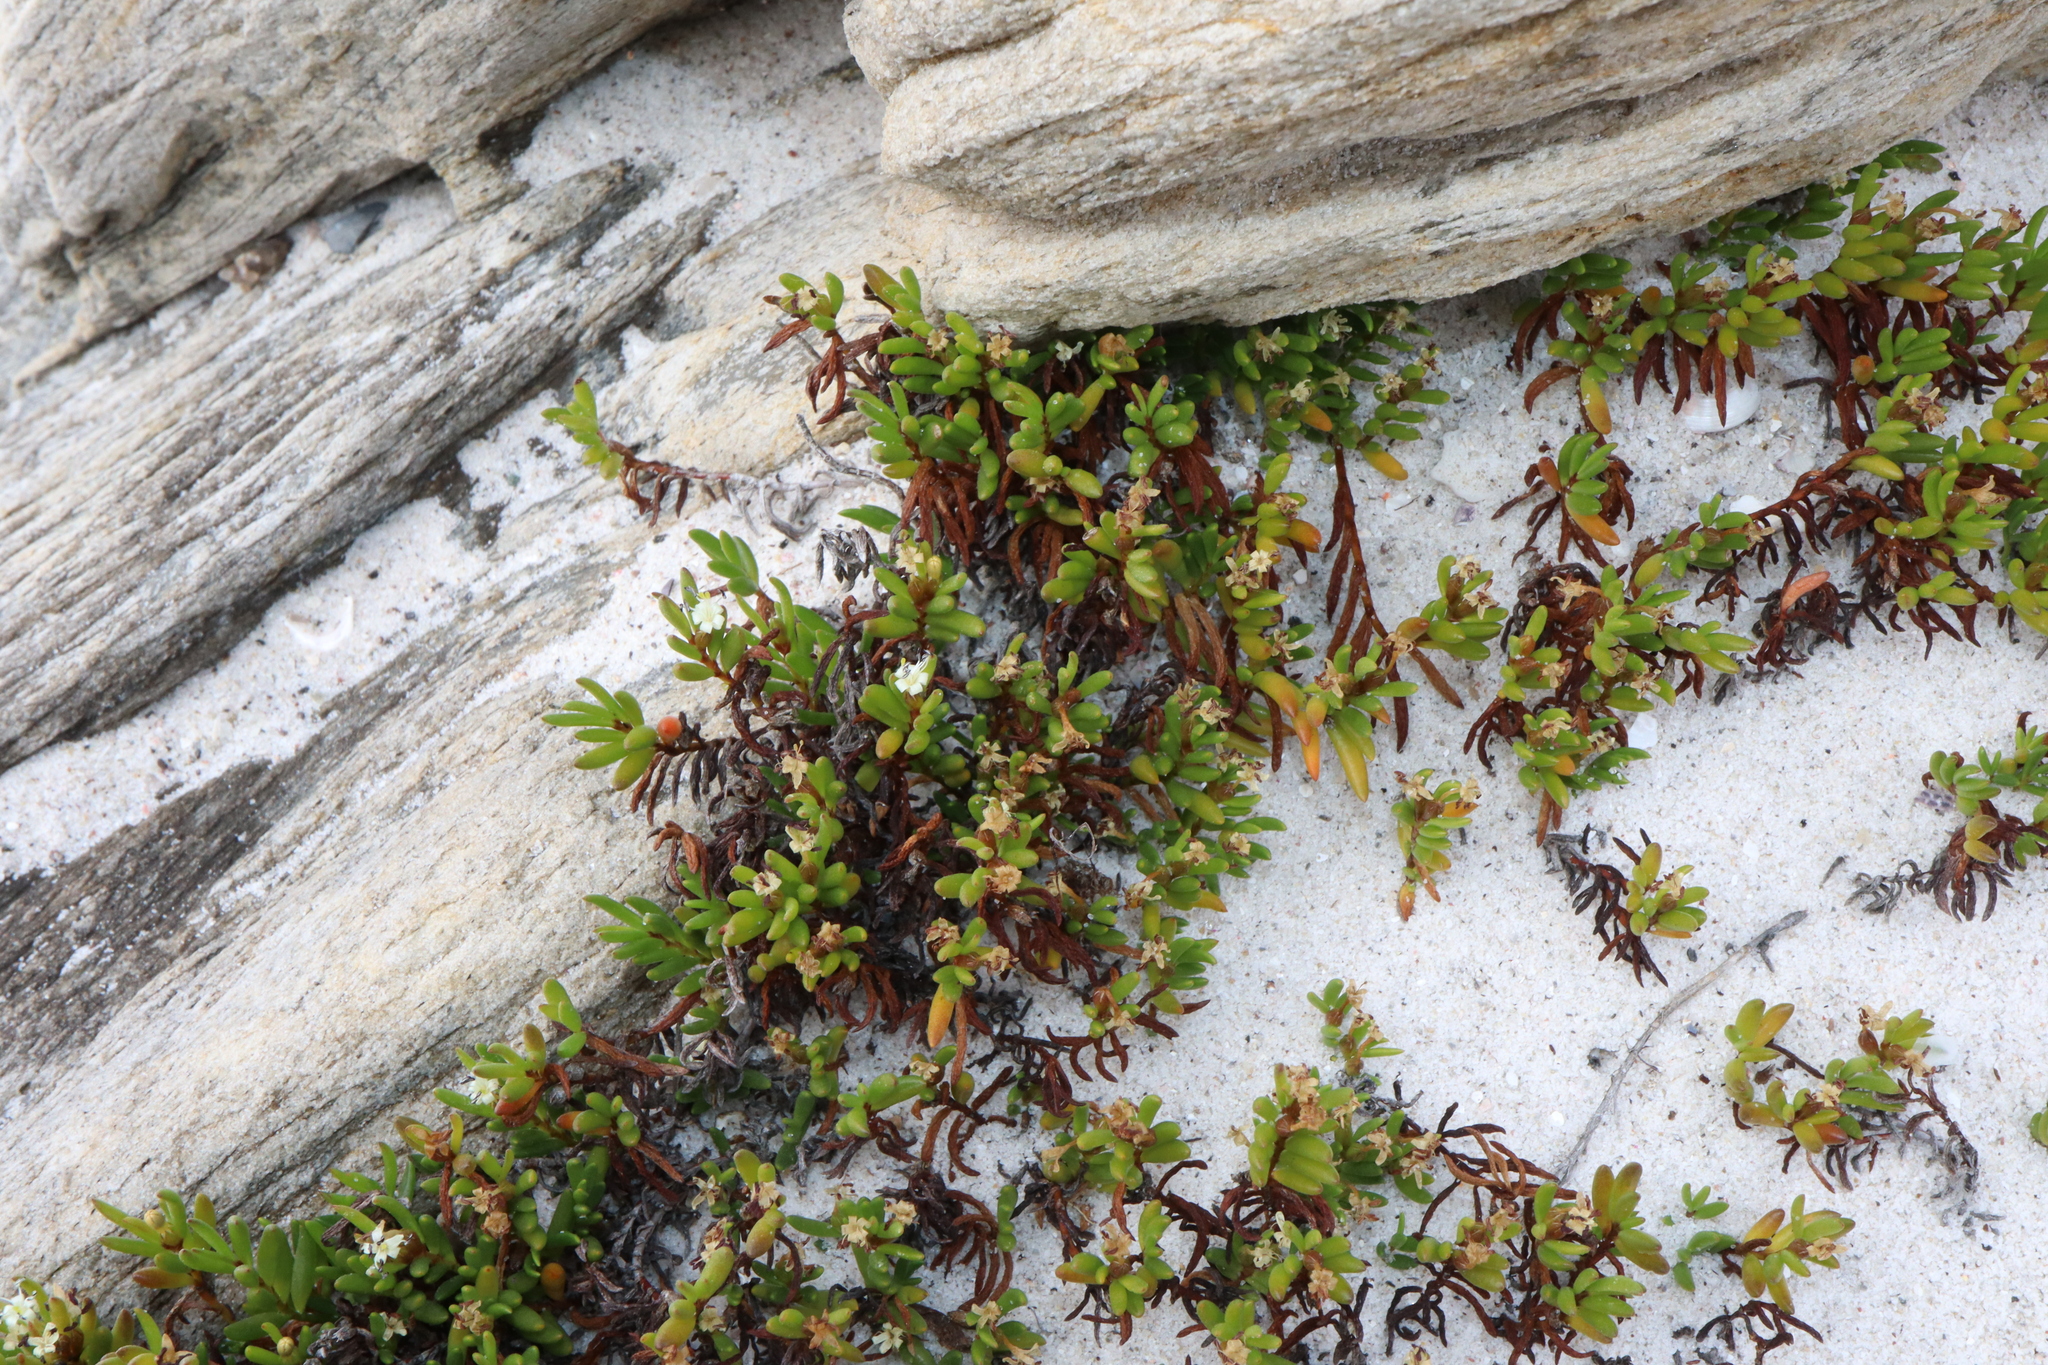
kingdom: Plantae
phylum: Tracheophyta
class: Magnoliopsida
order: Solanales
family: Convolvulaceae
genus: Wilsonia
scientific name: Wilsonia backhousei
